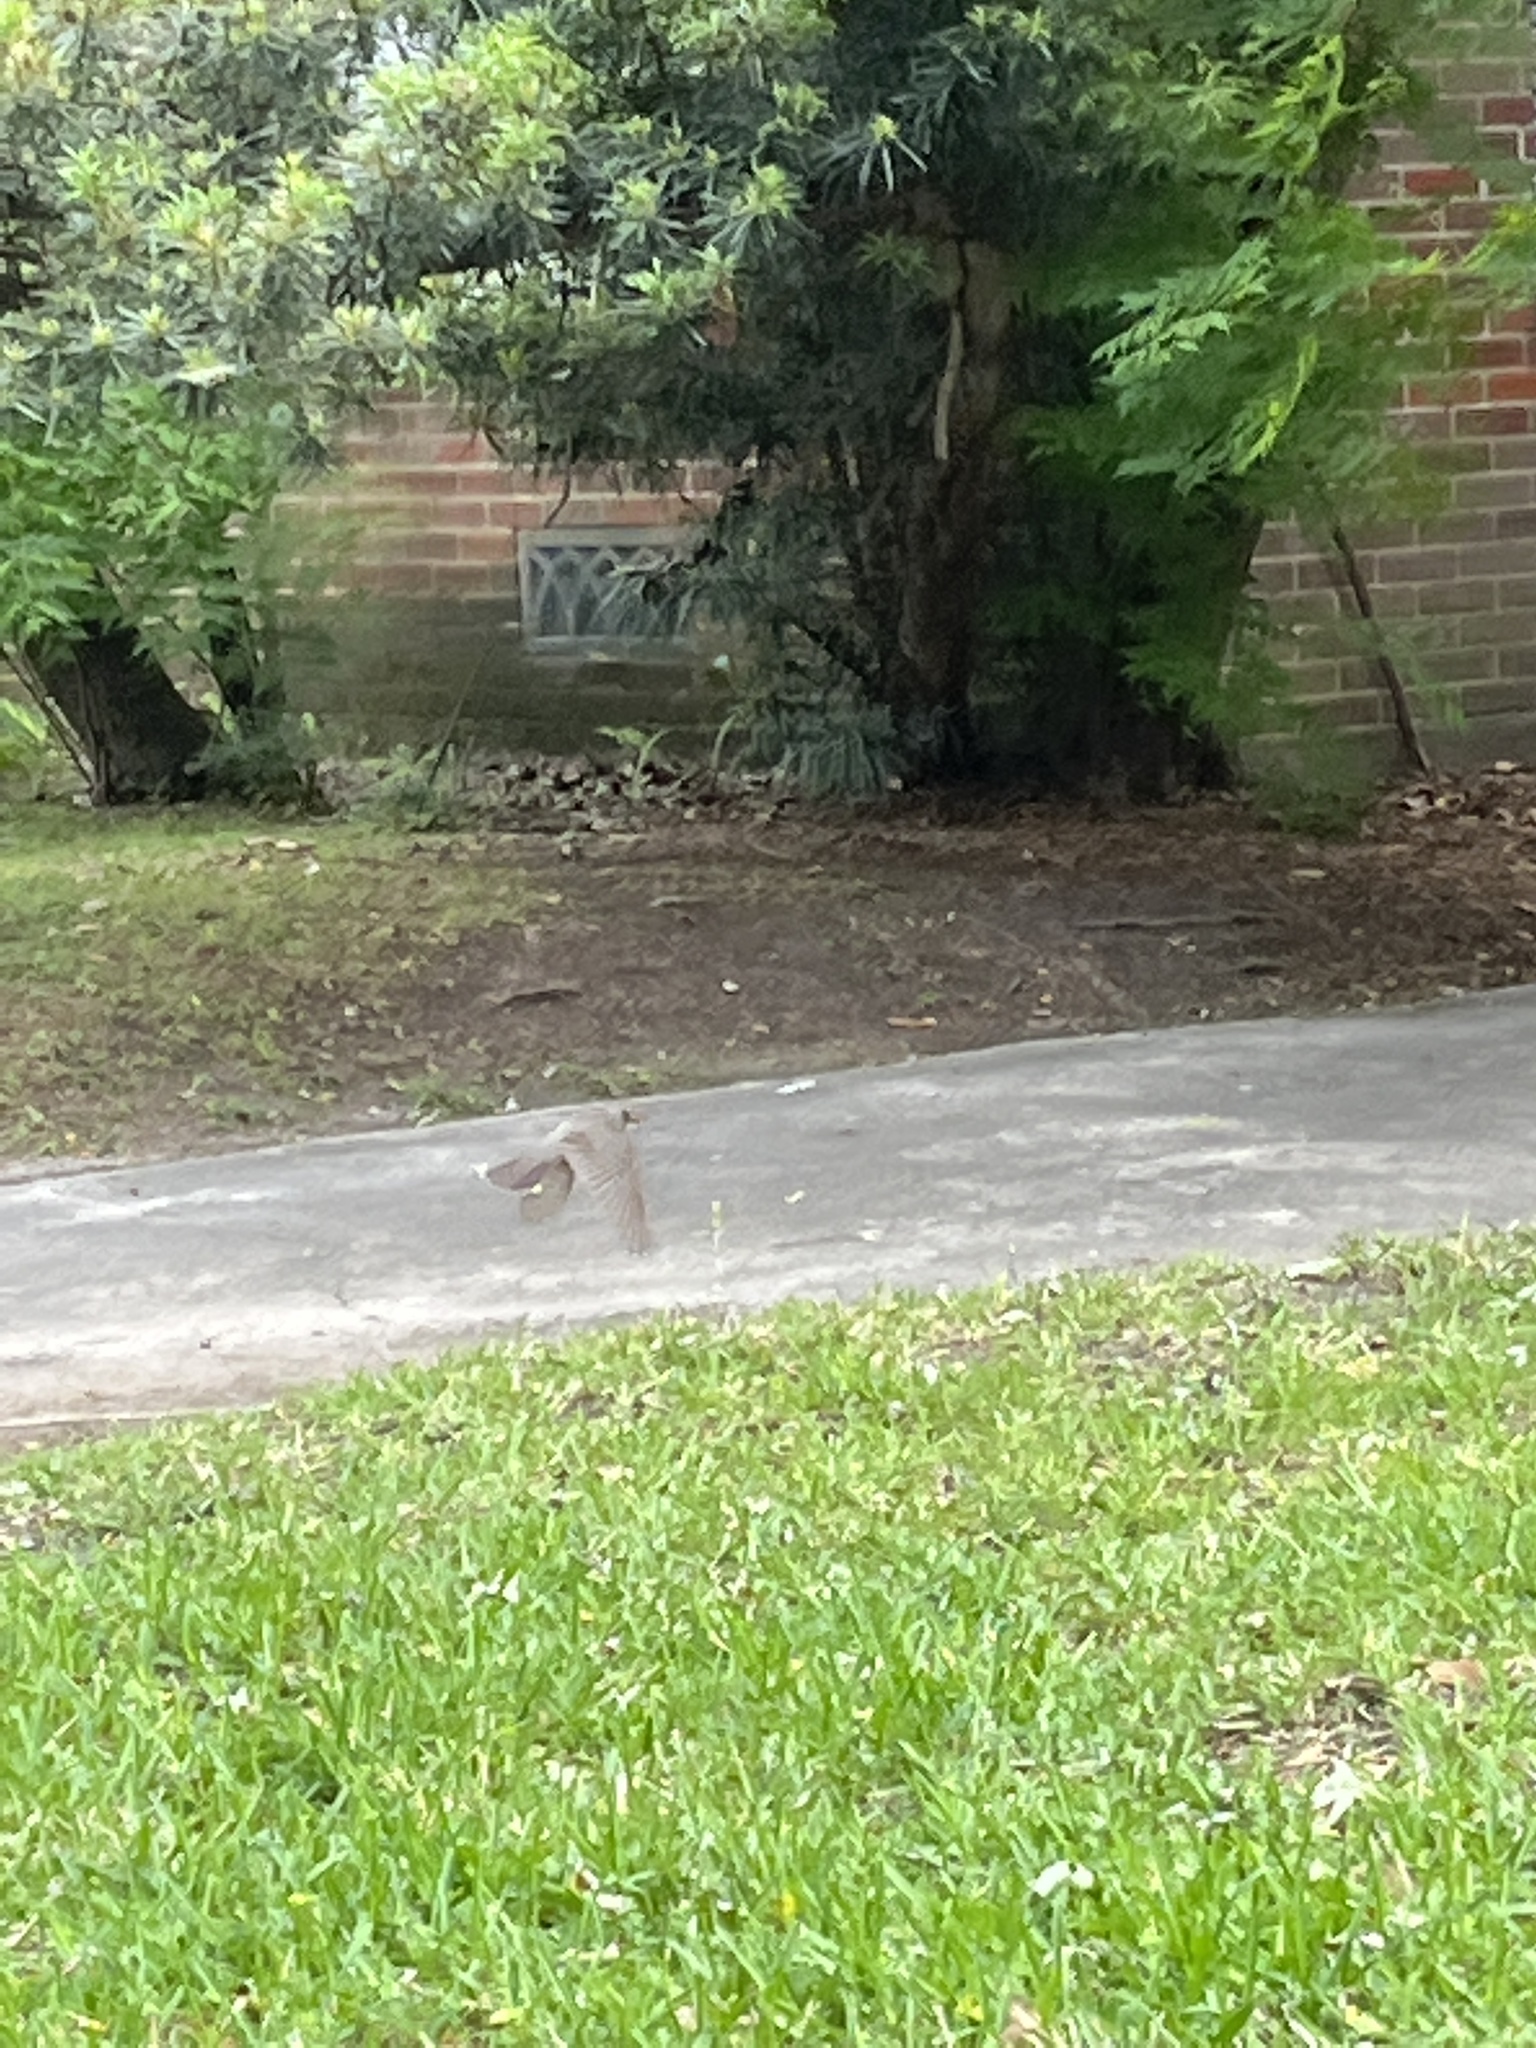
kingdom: Animalia
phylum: Chordata
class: Aves
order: Passeriformes
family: Turdidae
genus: Turdus
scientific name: Turdus migratorius
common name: American robin
